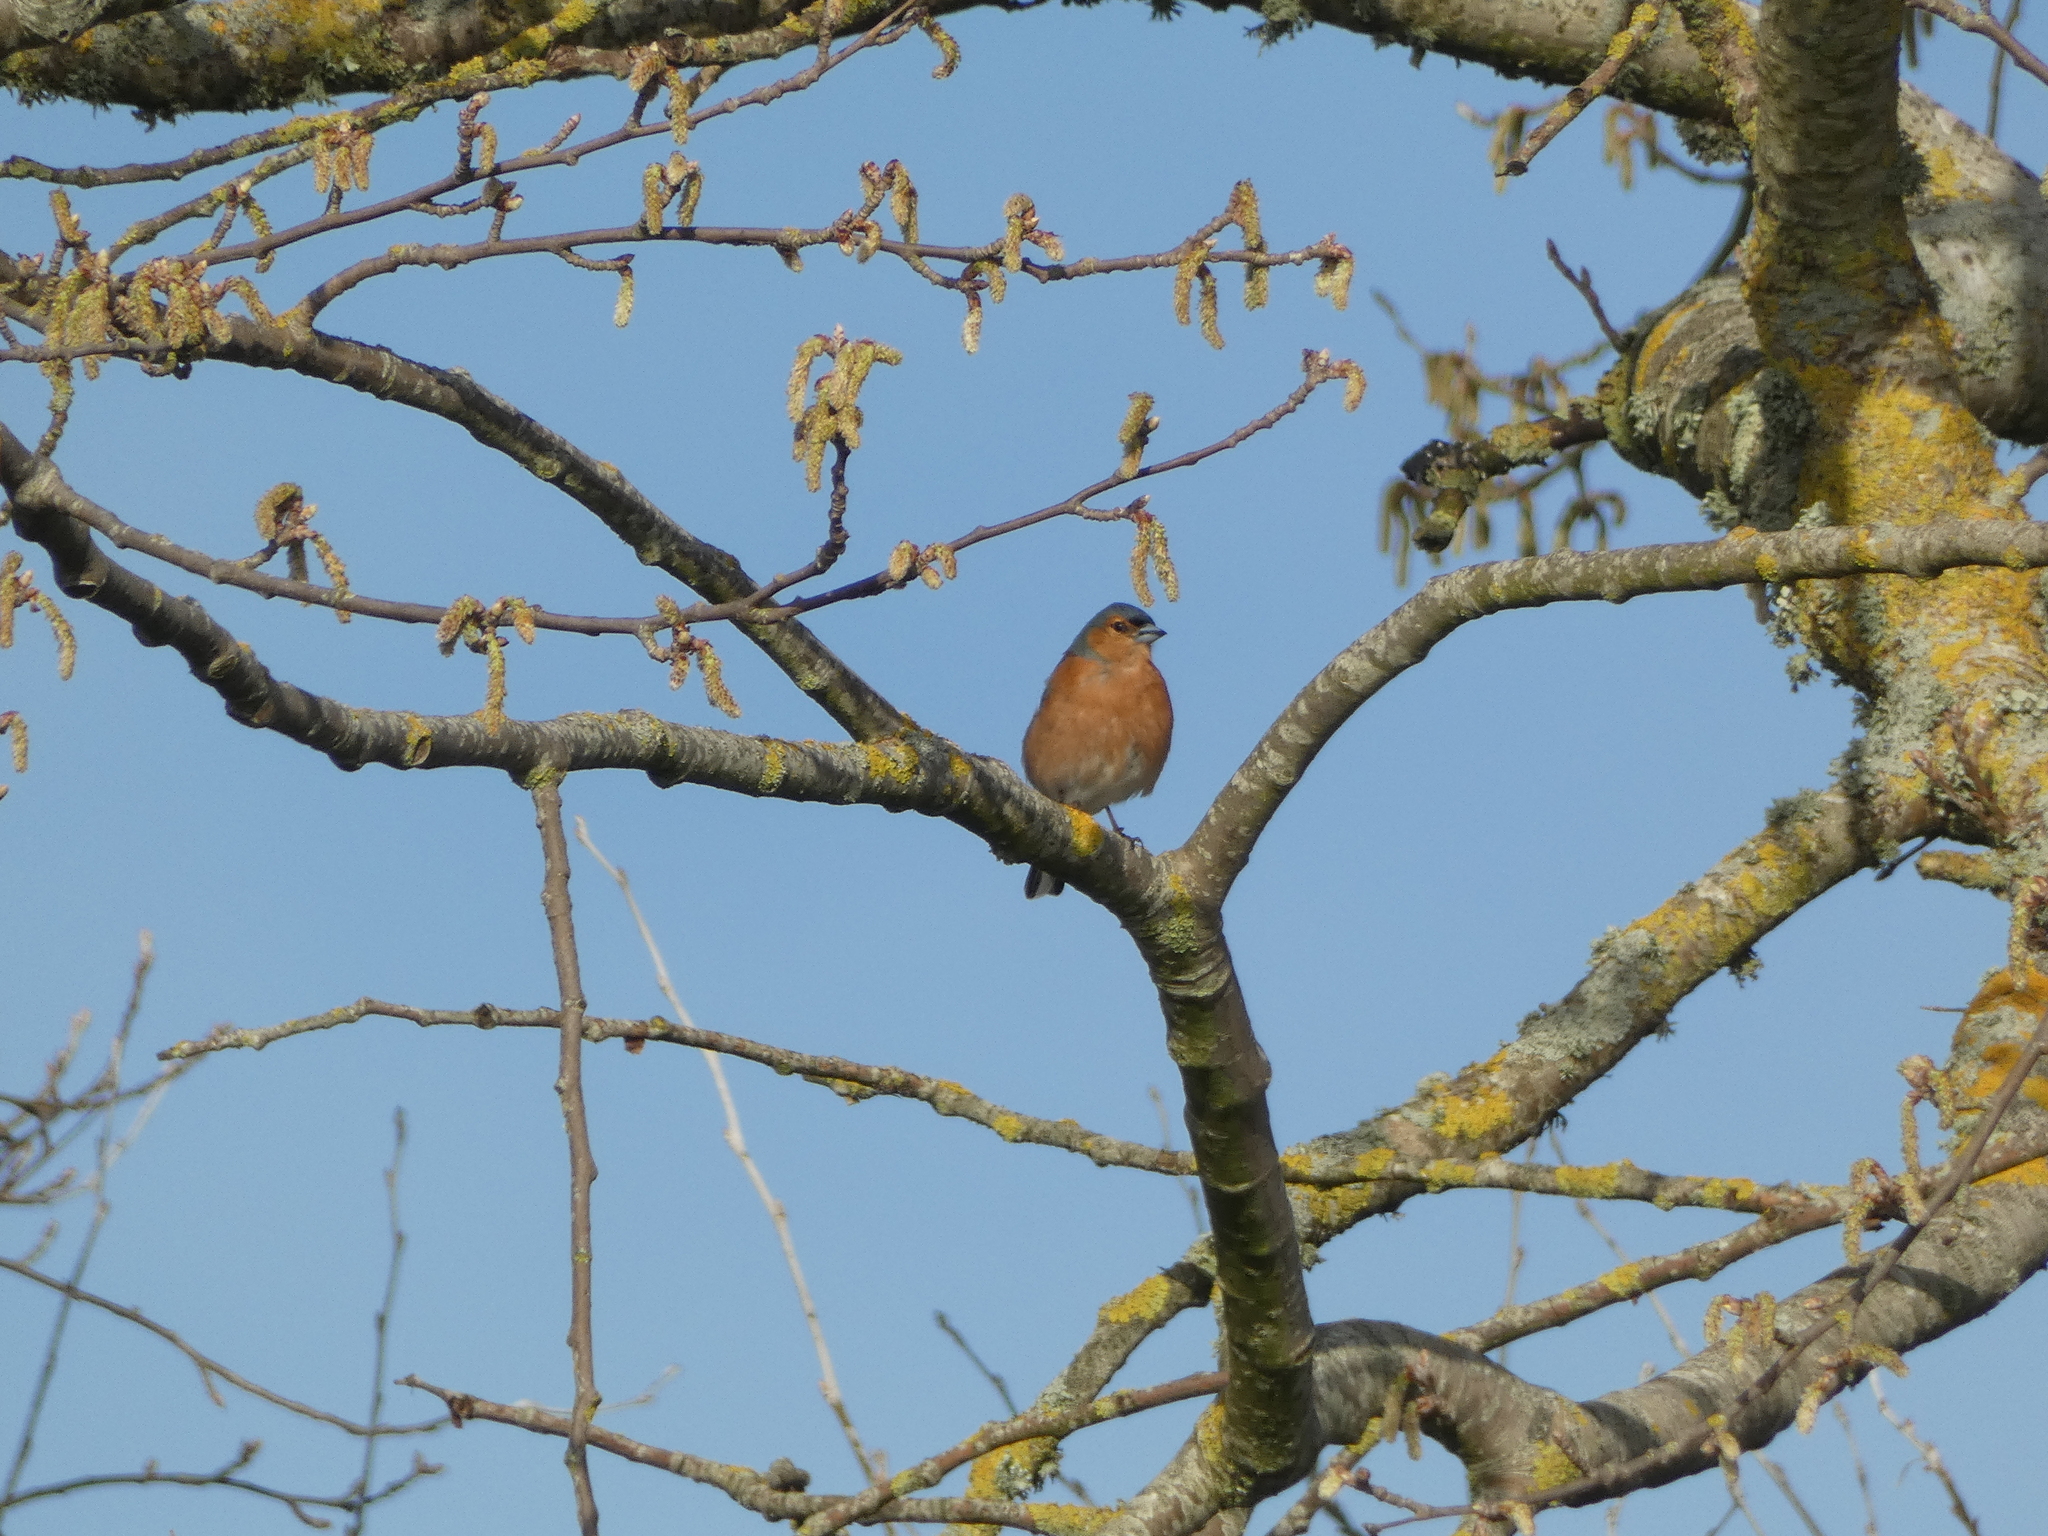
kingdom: Animalia
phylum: Chordata
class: Aves
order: Passeriformes
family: Fringillidae
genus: Fringilla
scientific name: Fringilla coelebs
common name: Common chaffinch
